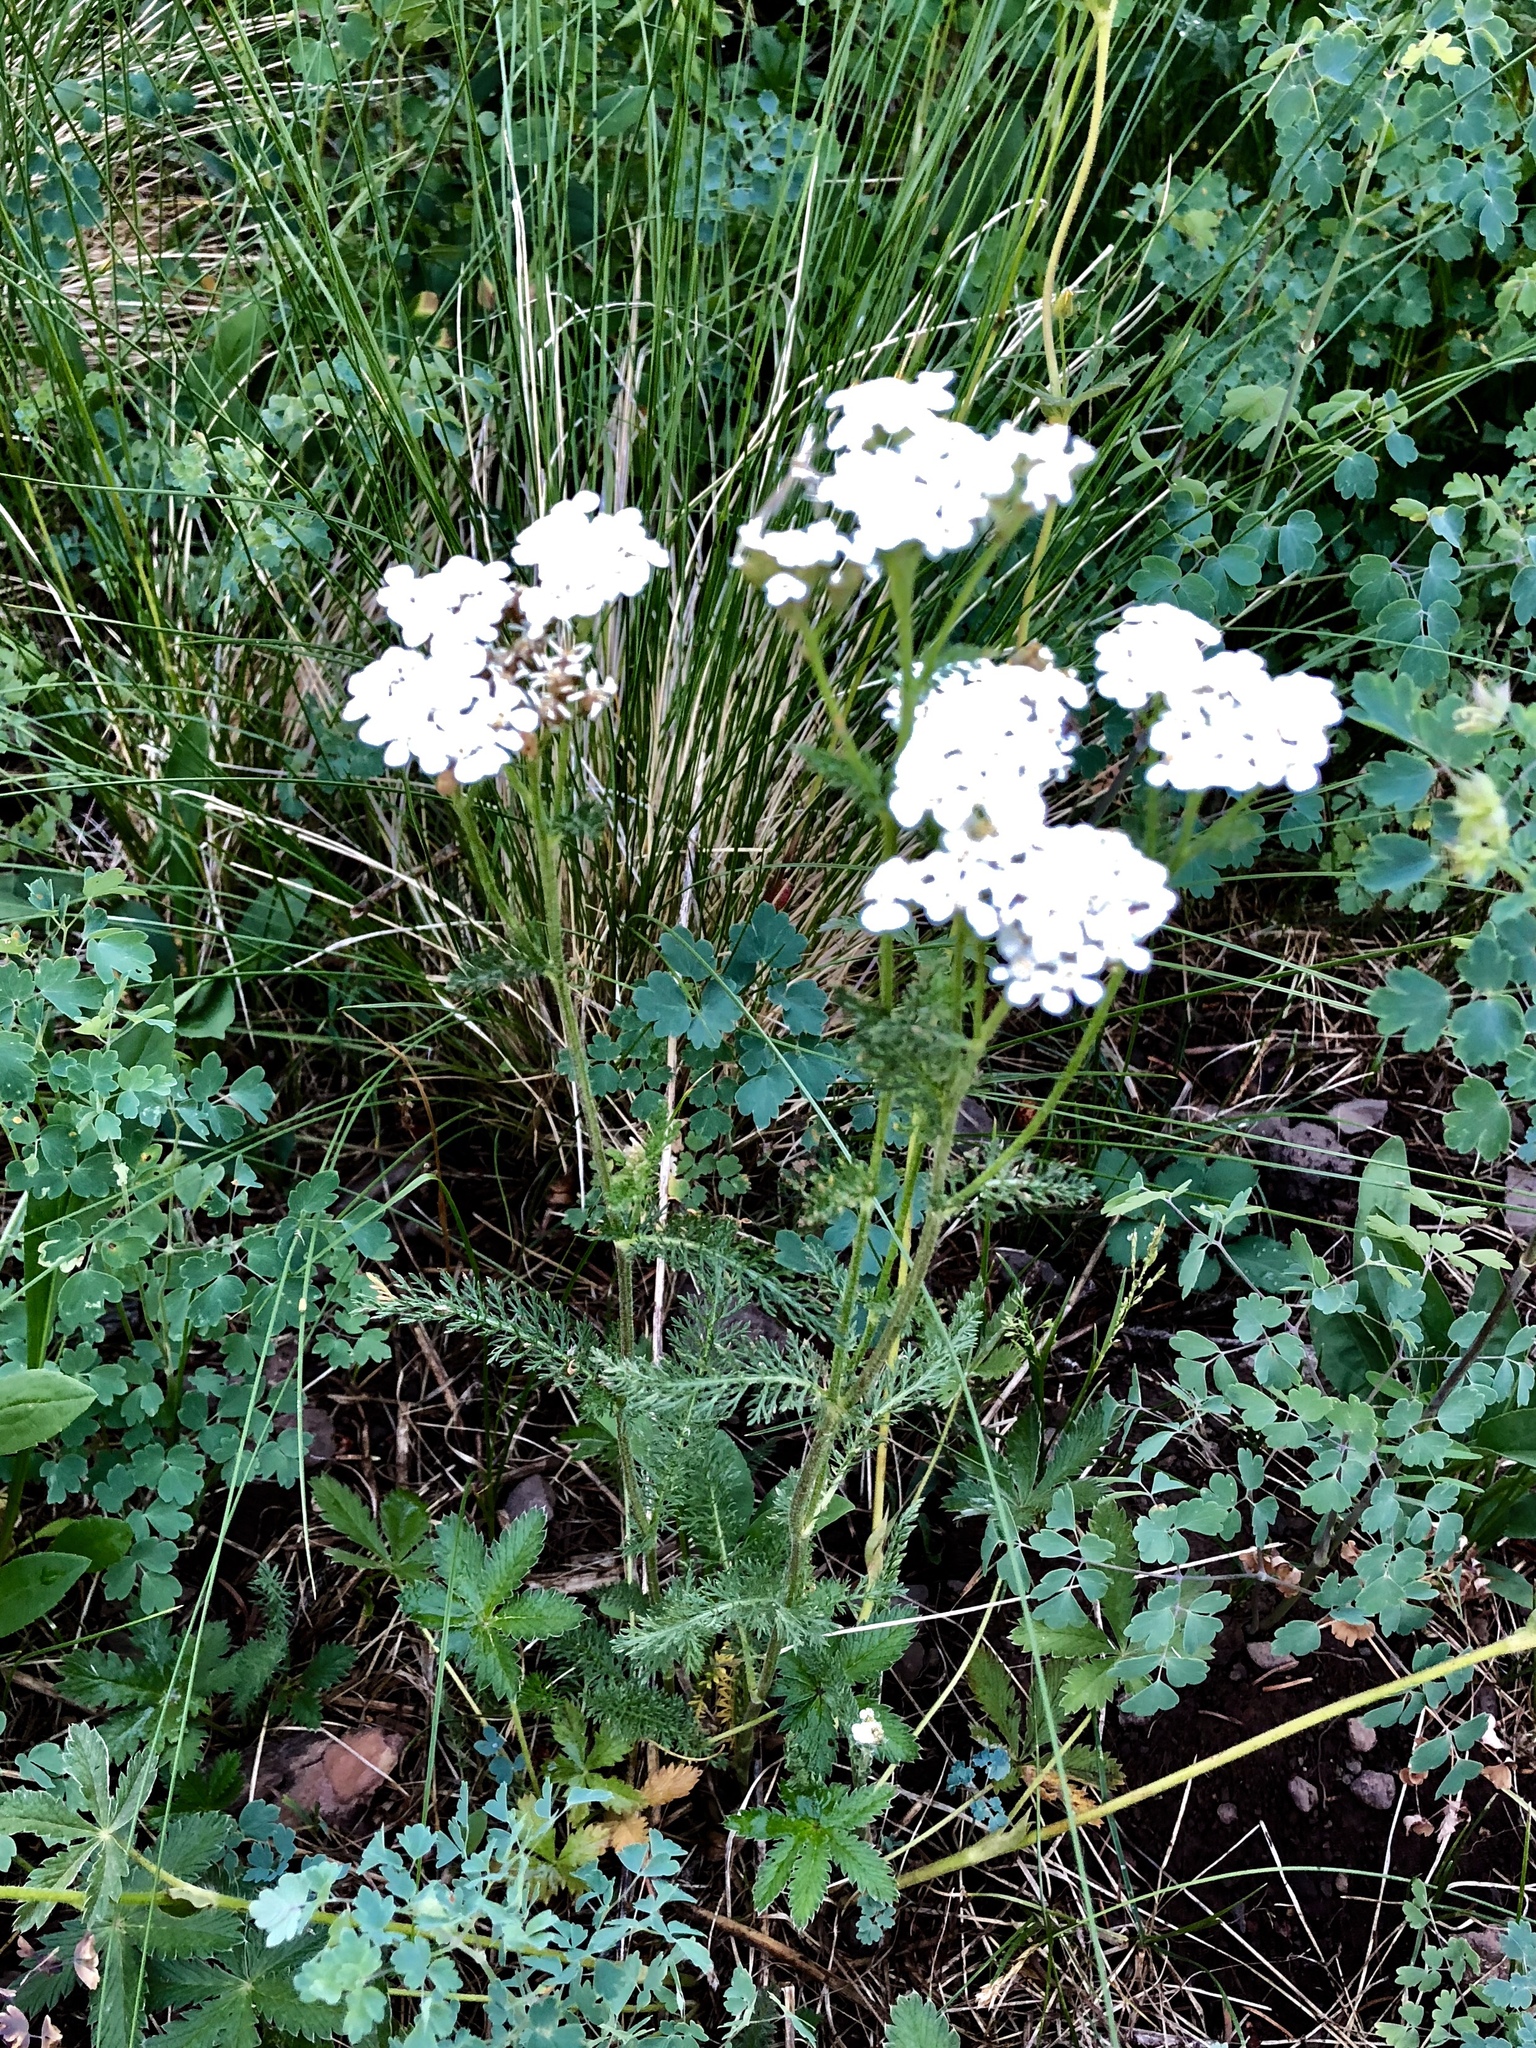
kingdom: Plantae
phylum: Tracheophyta
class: Magnoliopsida
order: Asterales
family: Asteraceae
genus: Achillea
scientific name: Achillea millefolium
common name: Yarrow
